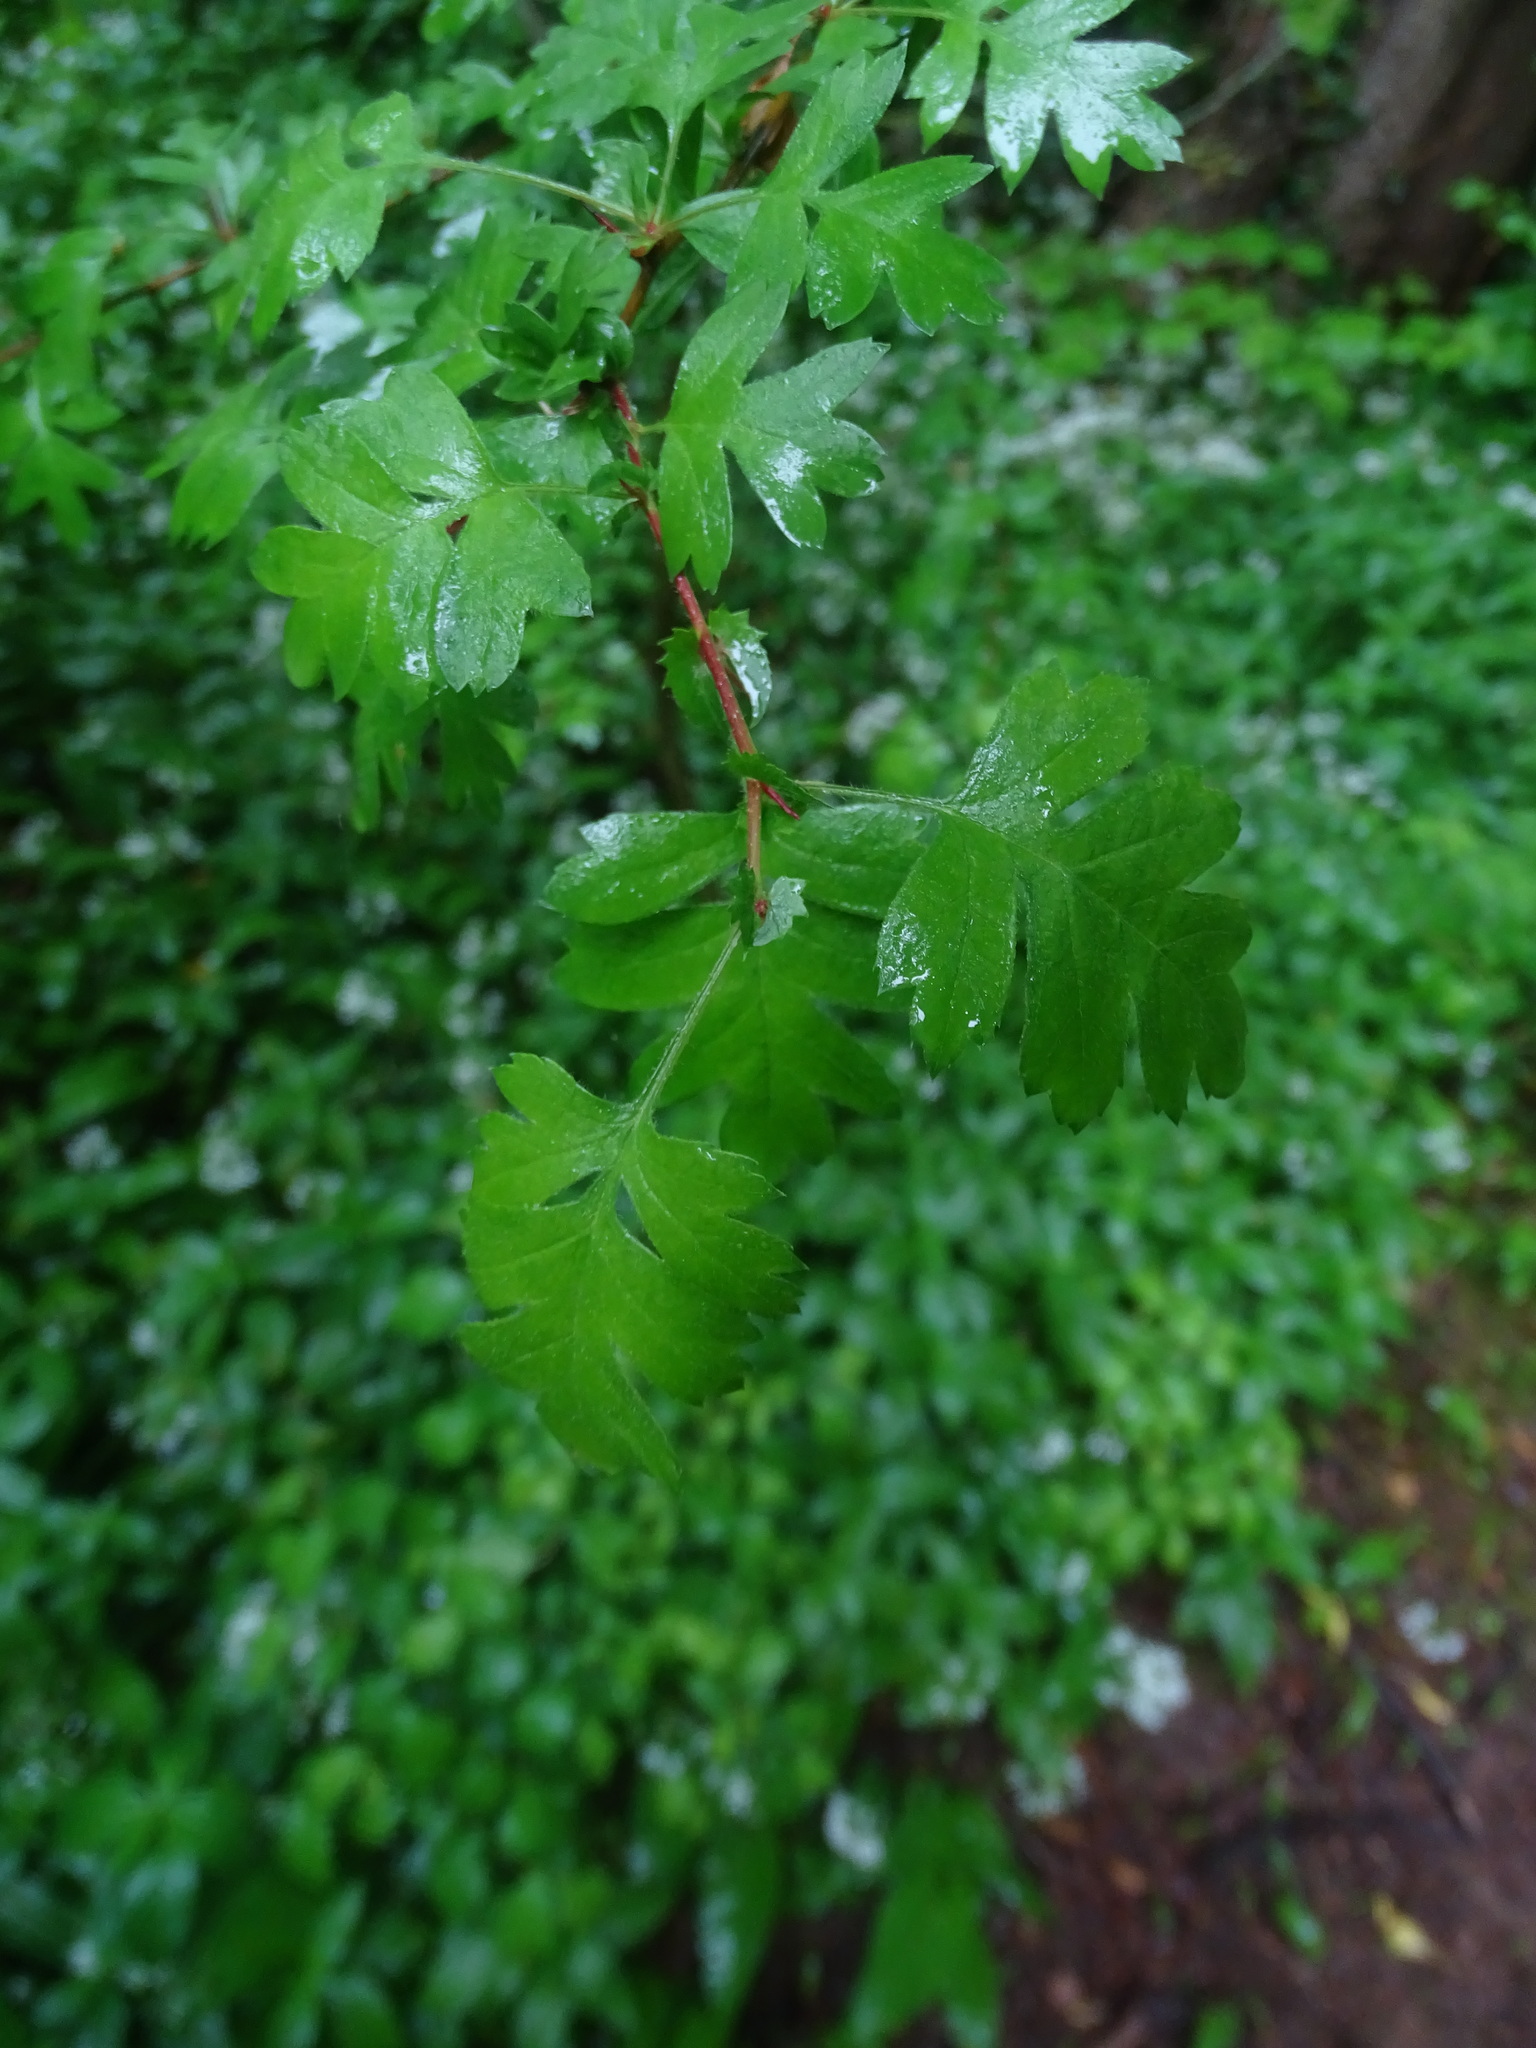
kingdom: Plantae
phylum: Tracheophyta
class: Magnoliopsida
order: Rosales
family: Rosaceae
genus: Crataegus
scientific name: Crataegus monogyna
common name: Hawthorn
